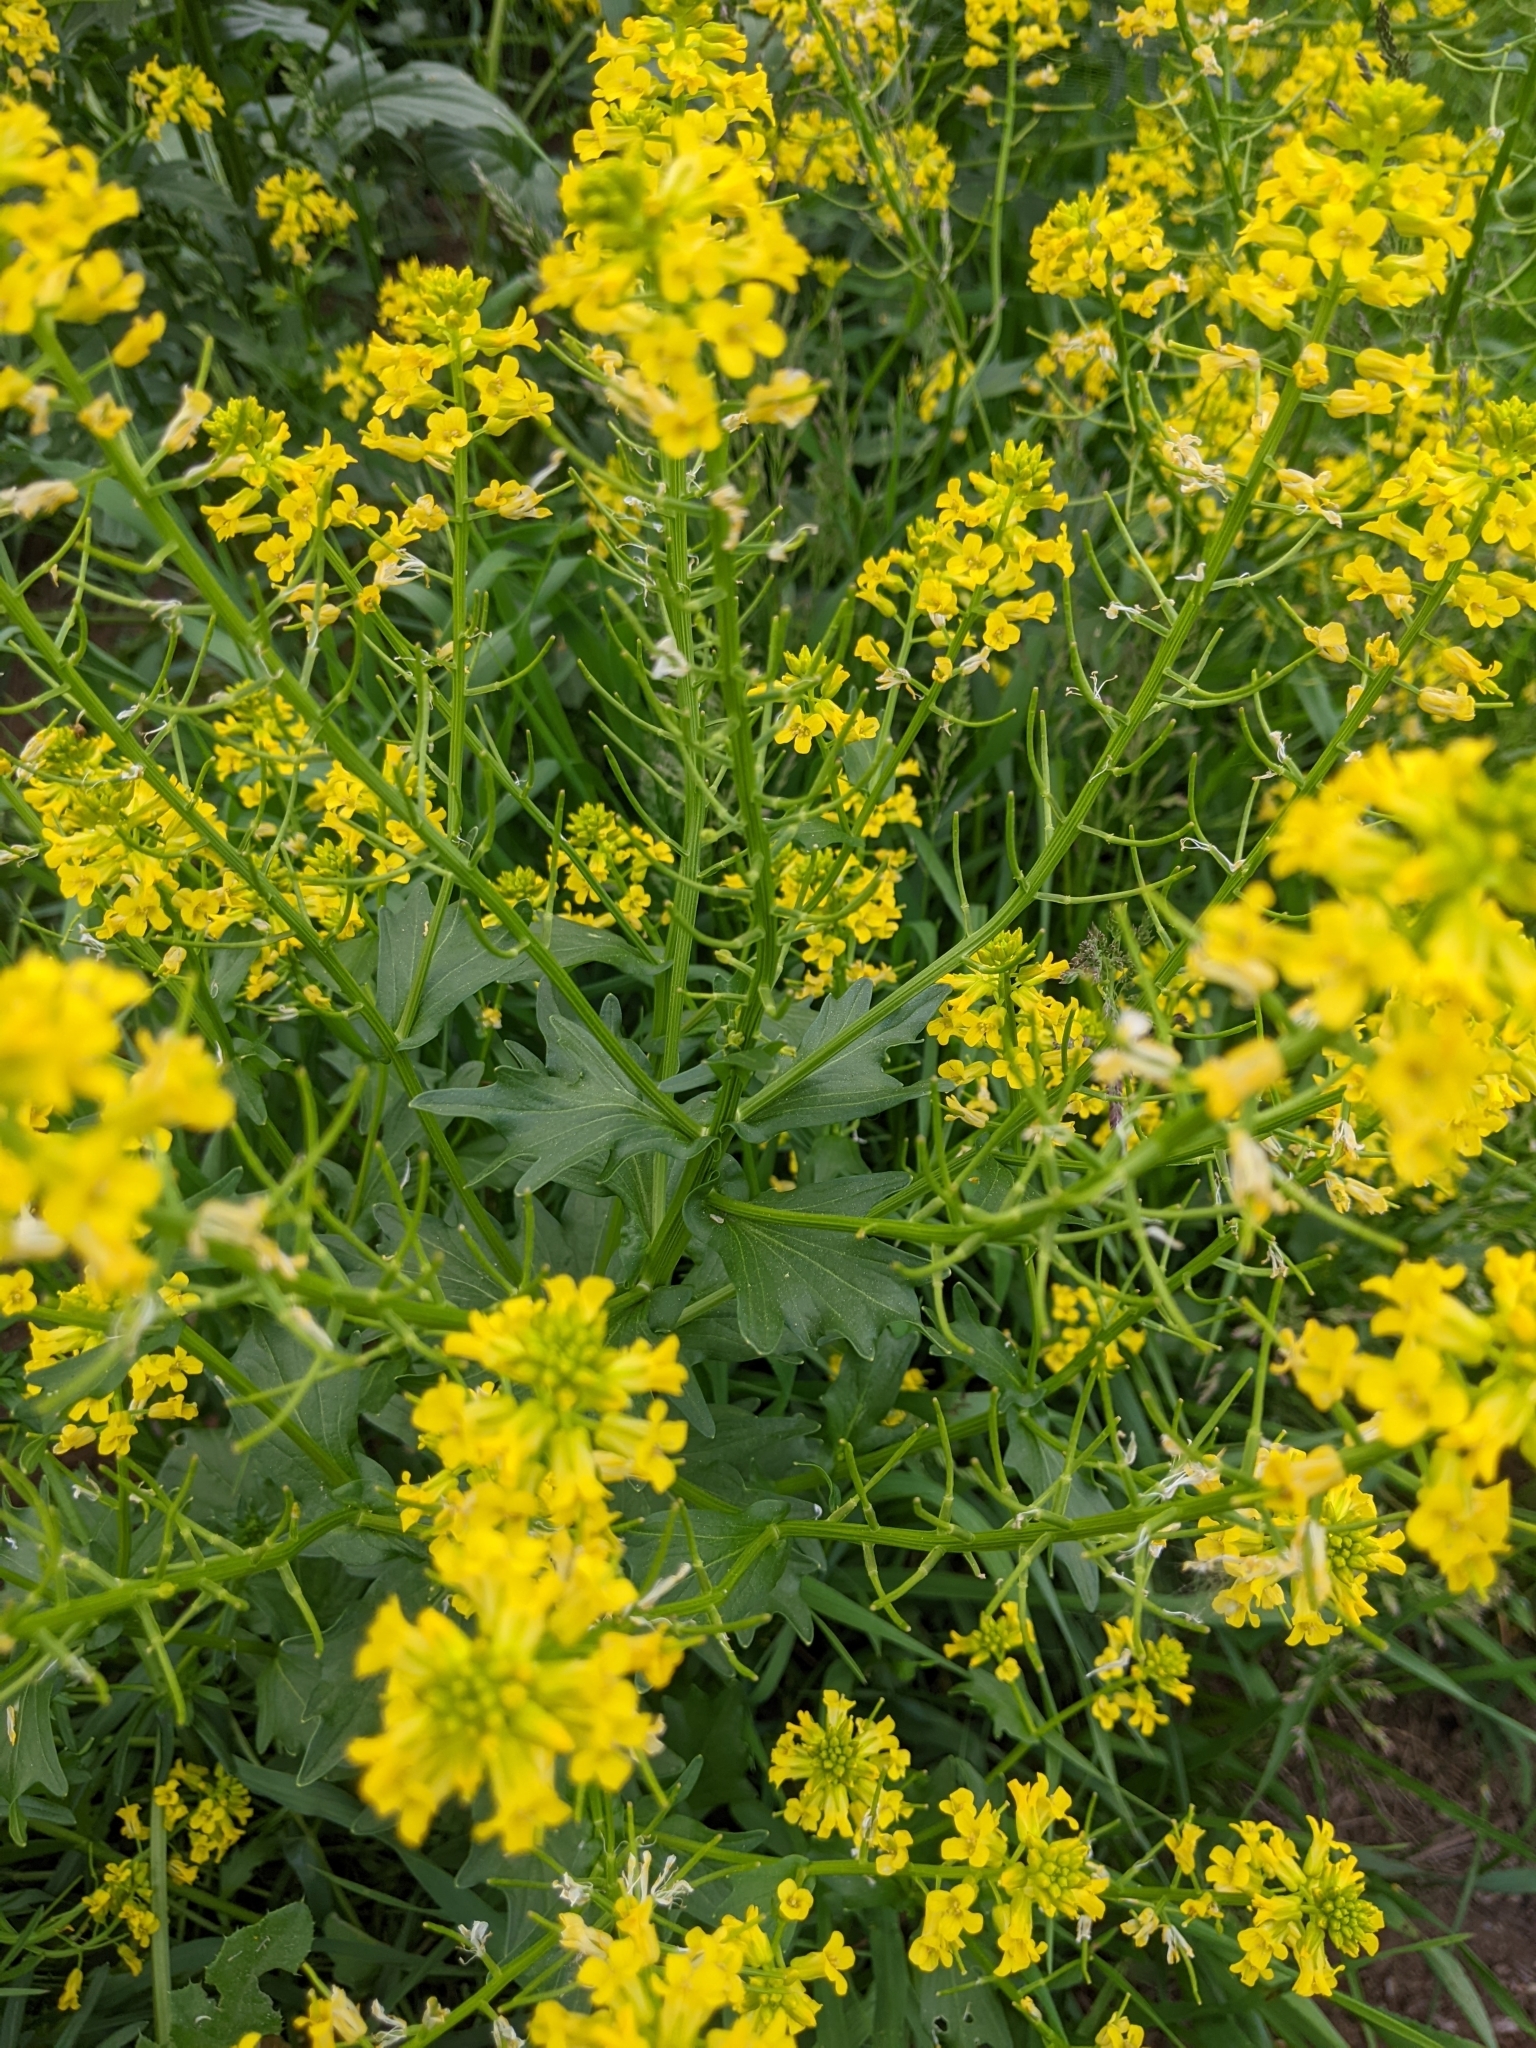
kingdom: Plantae
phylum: Tracheophyta
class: Magnoliopsida
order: Brassicales
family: Brassicaceae
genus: Barbarea
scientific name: Barbarea vulgaris
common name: Cressy-greens
